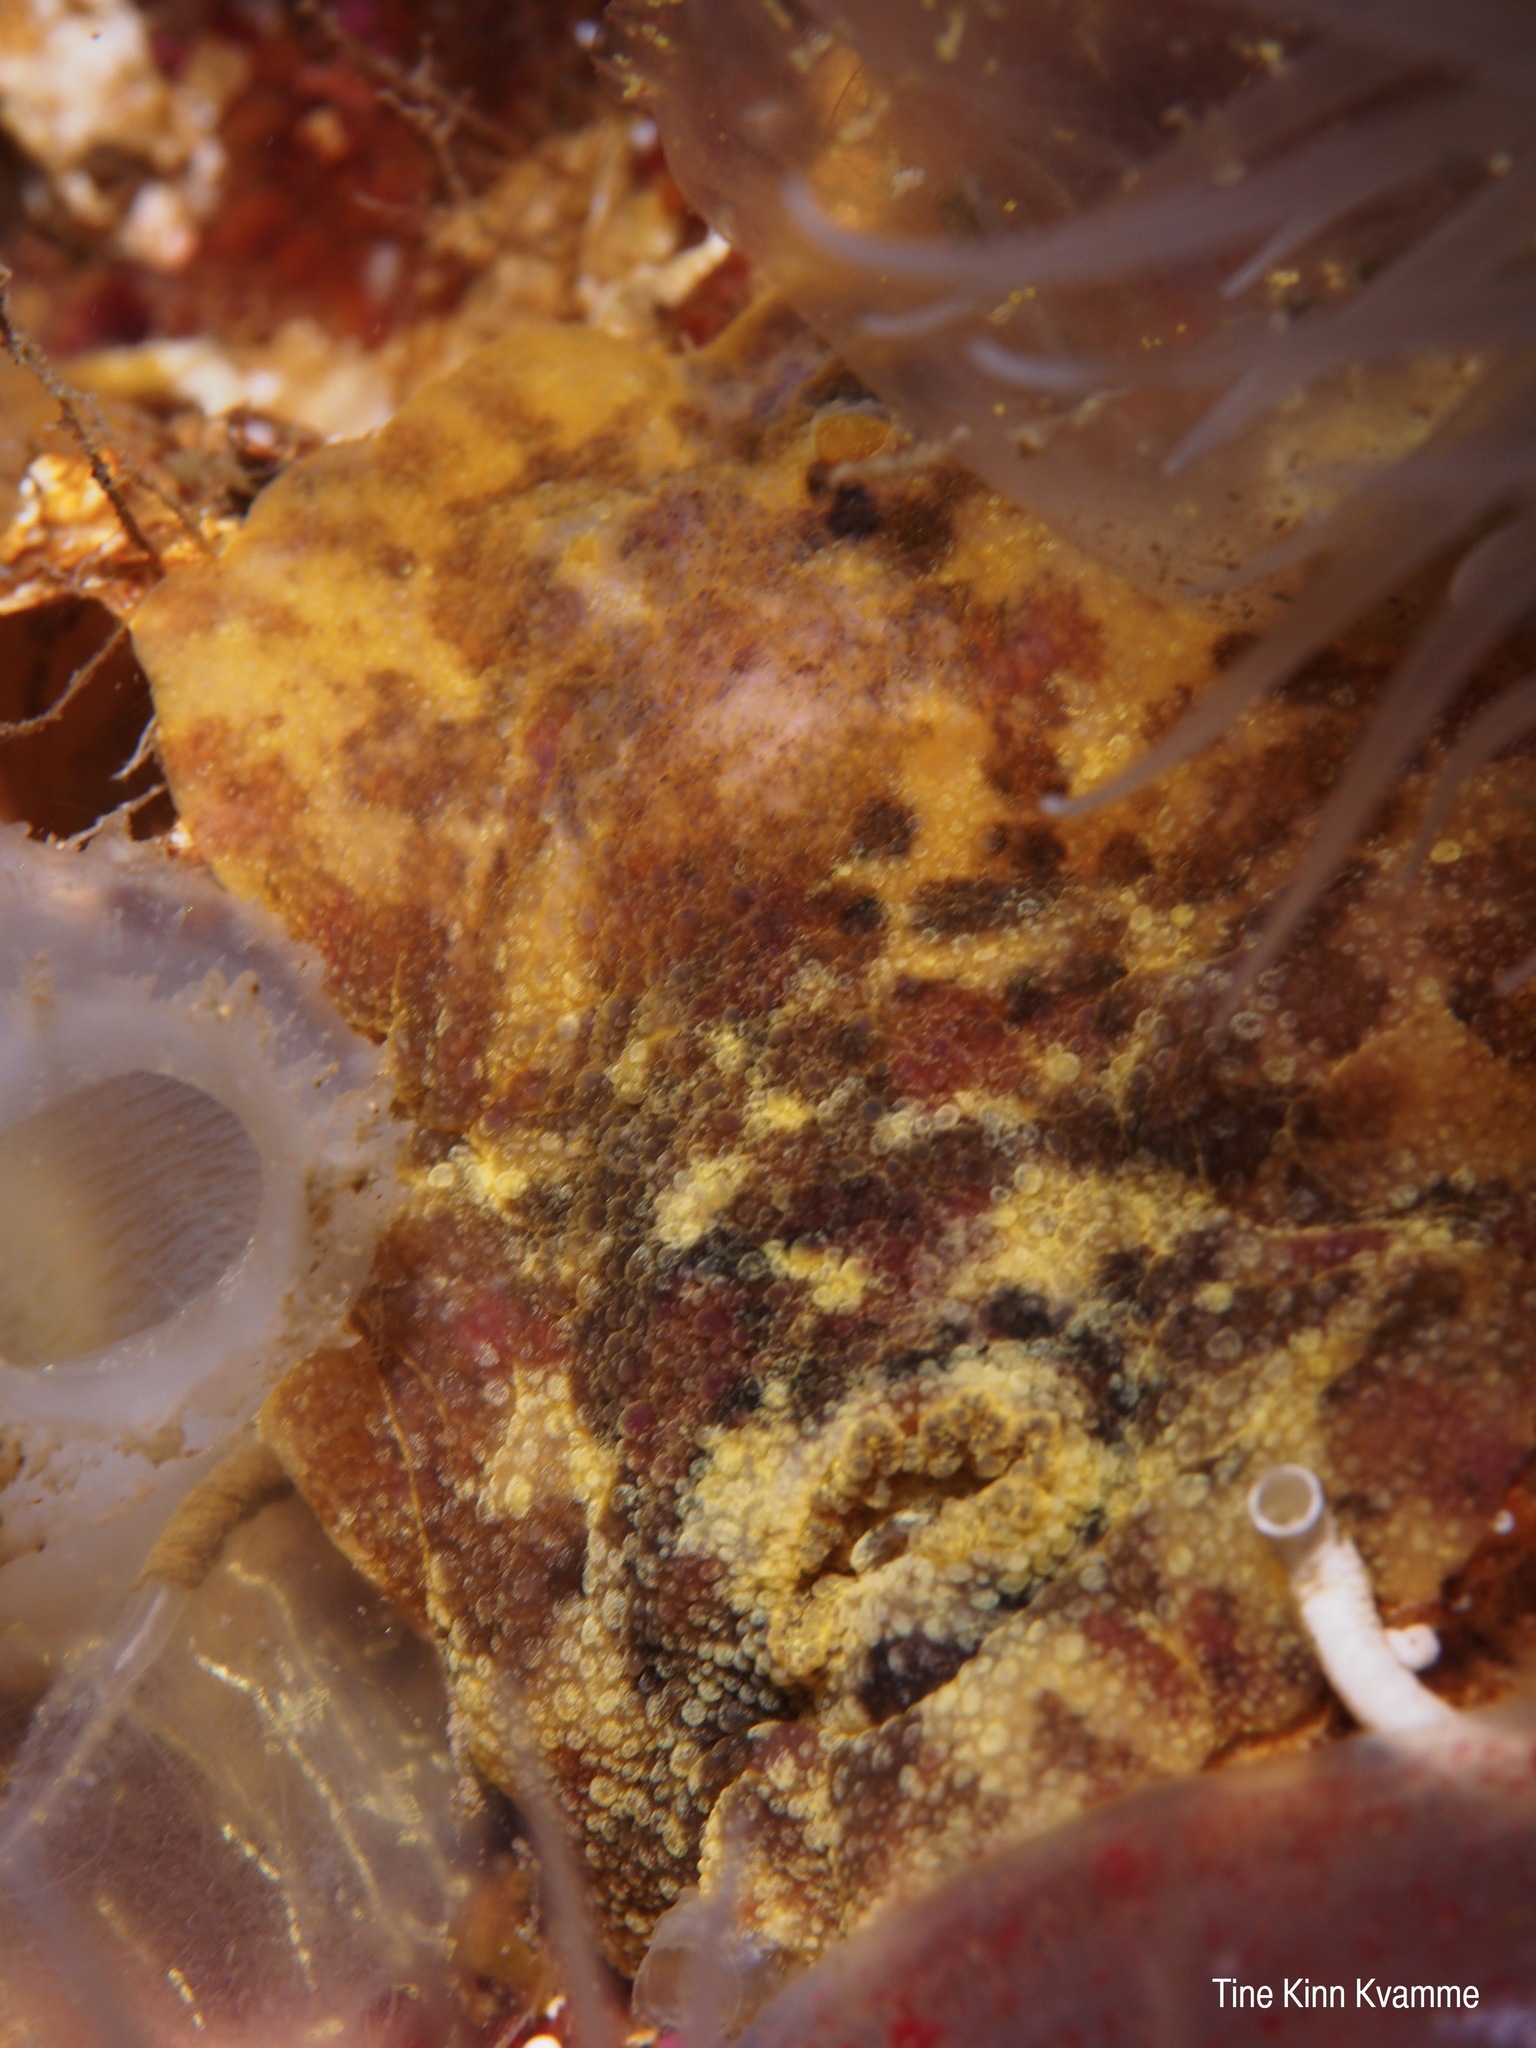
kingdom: Animalia
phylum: Mollusca
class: Gastropoda
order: Nudibranchia
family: Dorididae
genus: Doris
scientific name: Doris pseudoargus
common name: Sea lemon
